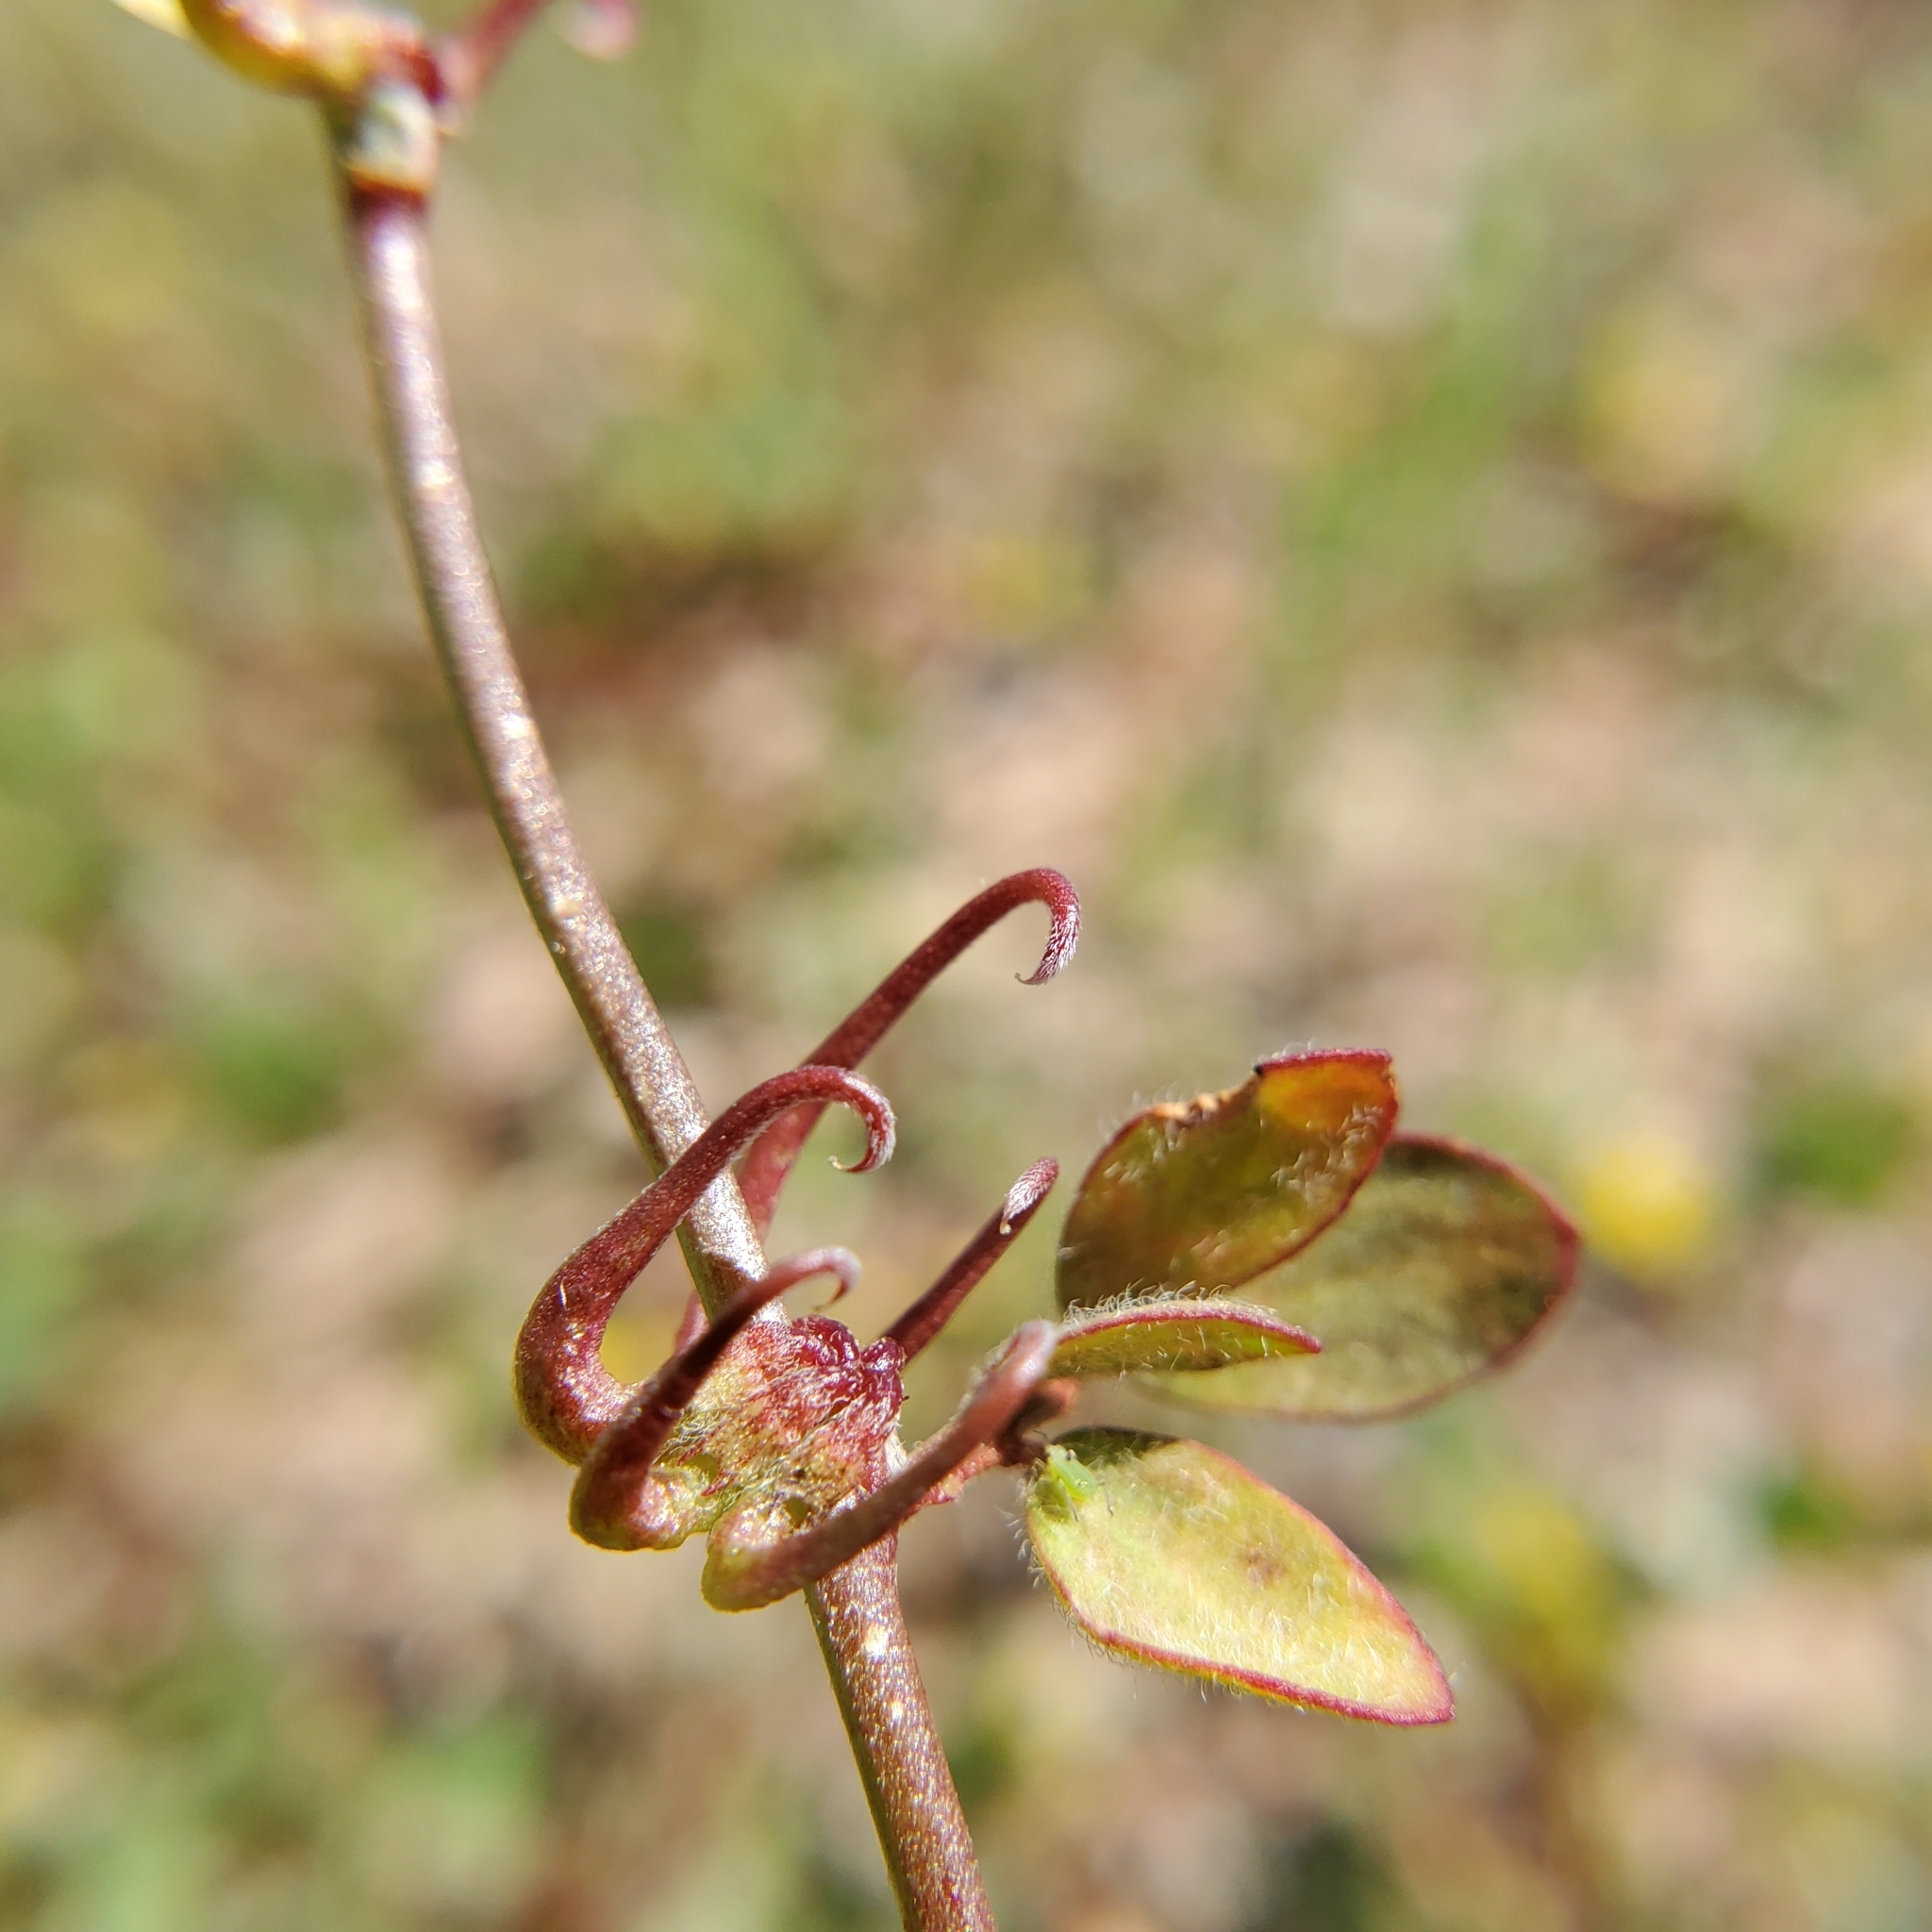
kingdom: Plantae
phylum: Tracheophyta
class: Magnoliopsida
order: Fabales
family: Fabaceae
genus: Acmispon
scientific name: Acmispon micranthus
